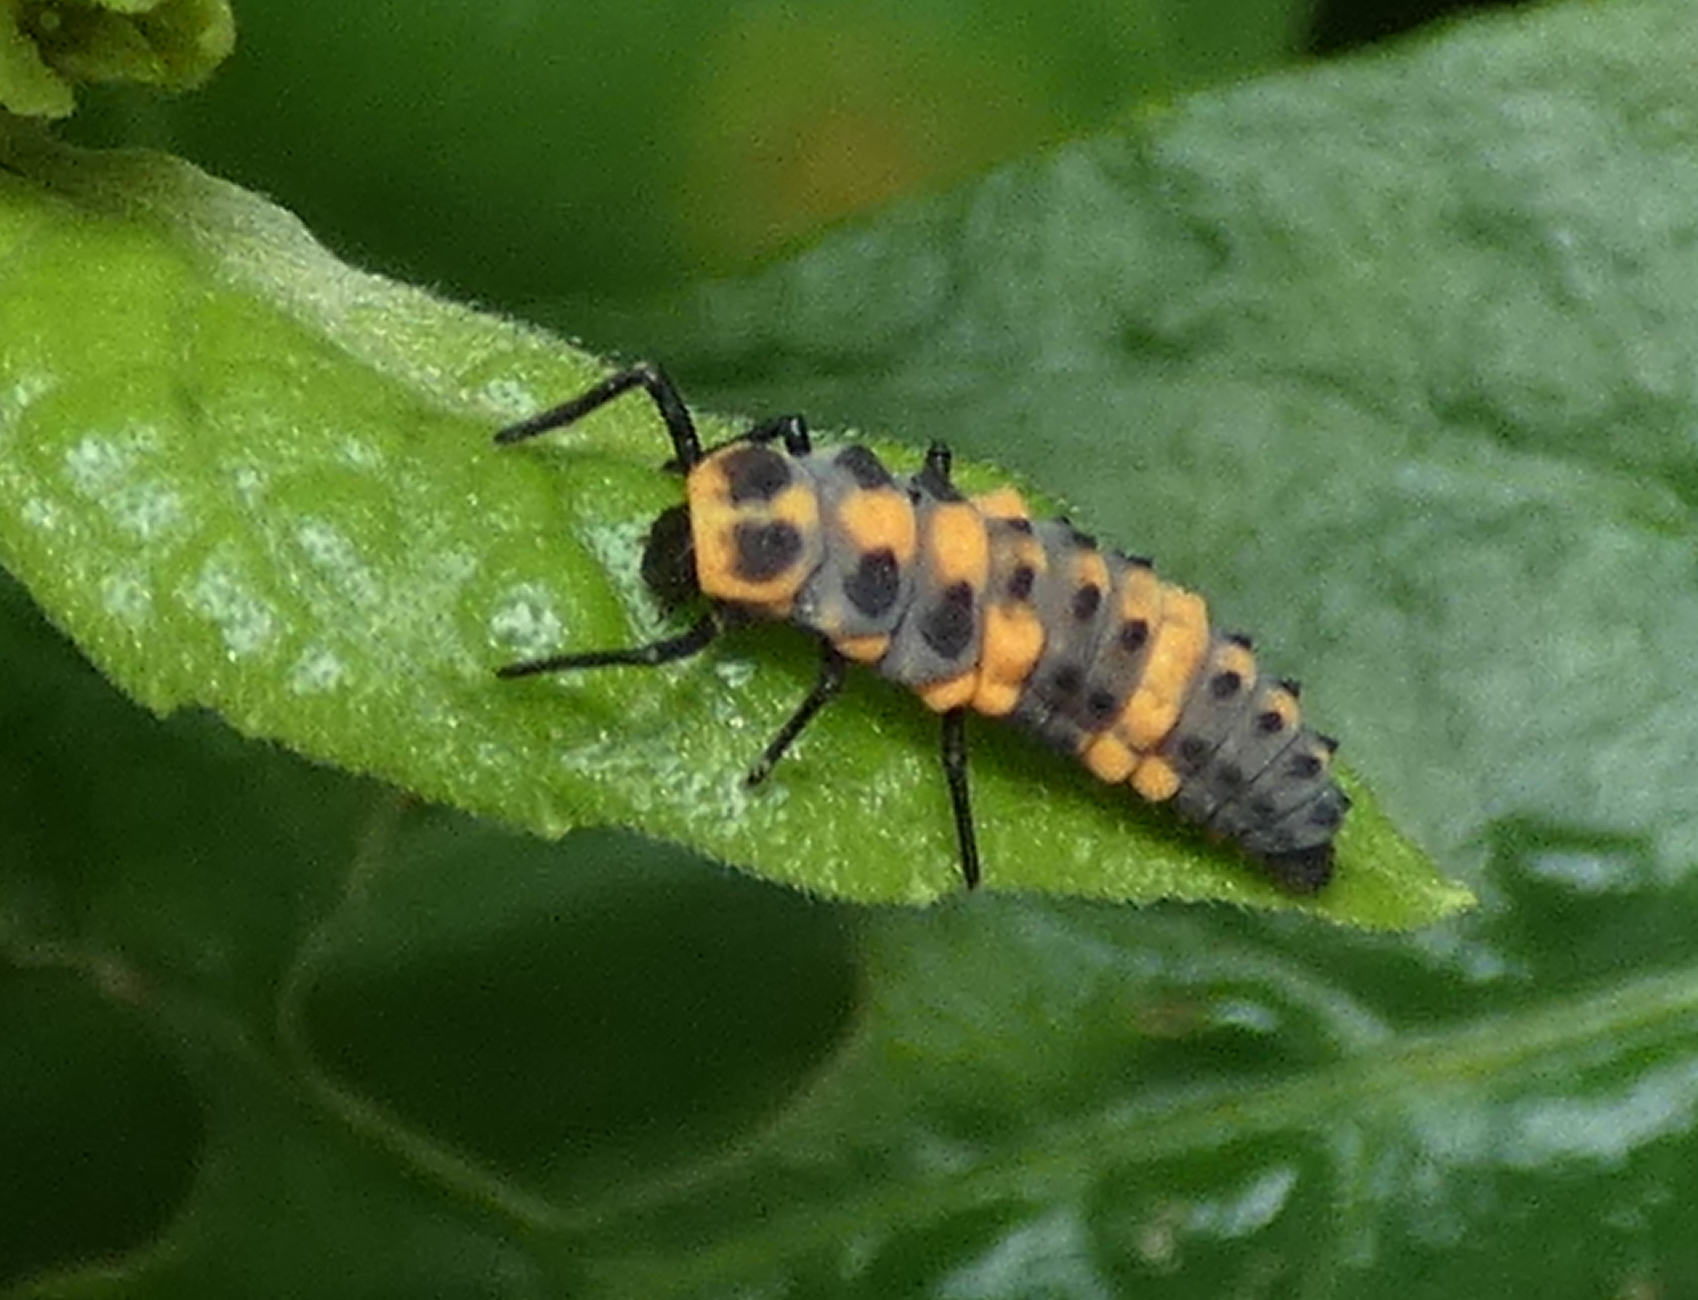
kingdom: Animalia
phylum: Arthropoda
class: Insecta
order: Coleoptera
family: Coccinellidae
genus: Cycloneda
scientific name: Cycloneda sanguinea
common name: Ladybird beetle
